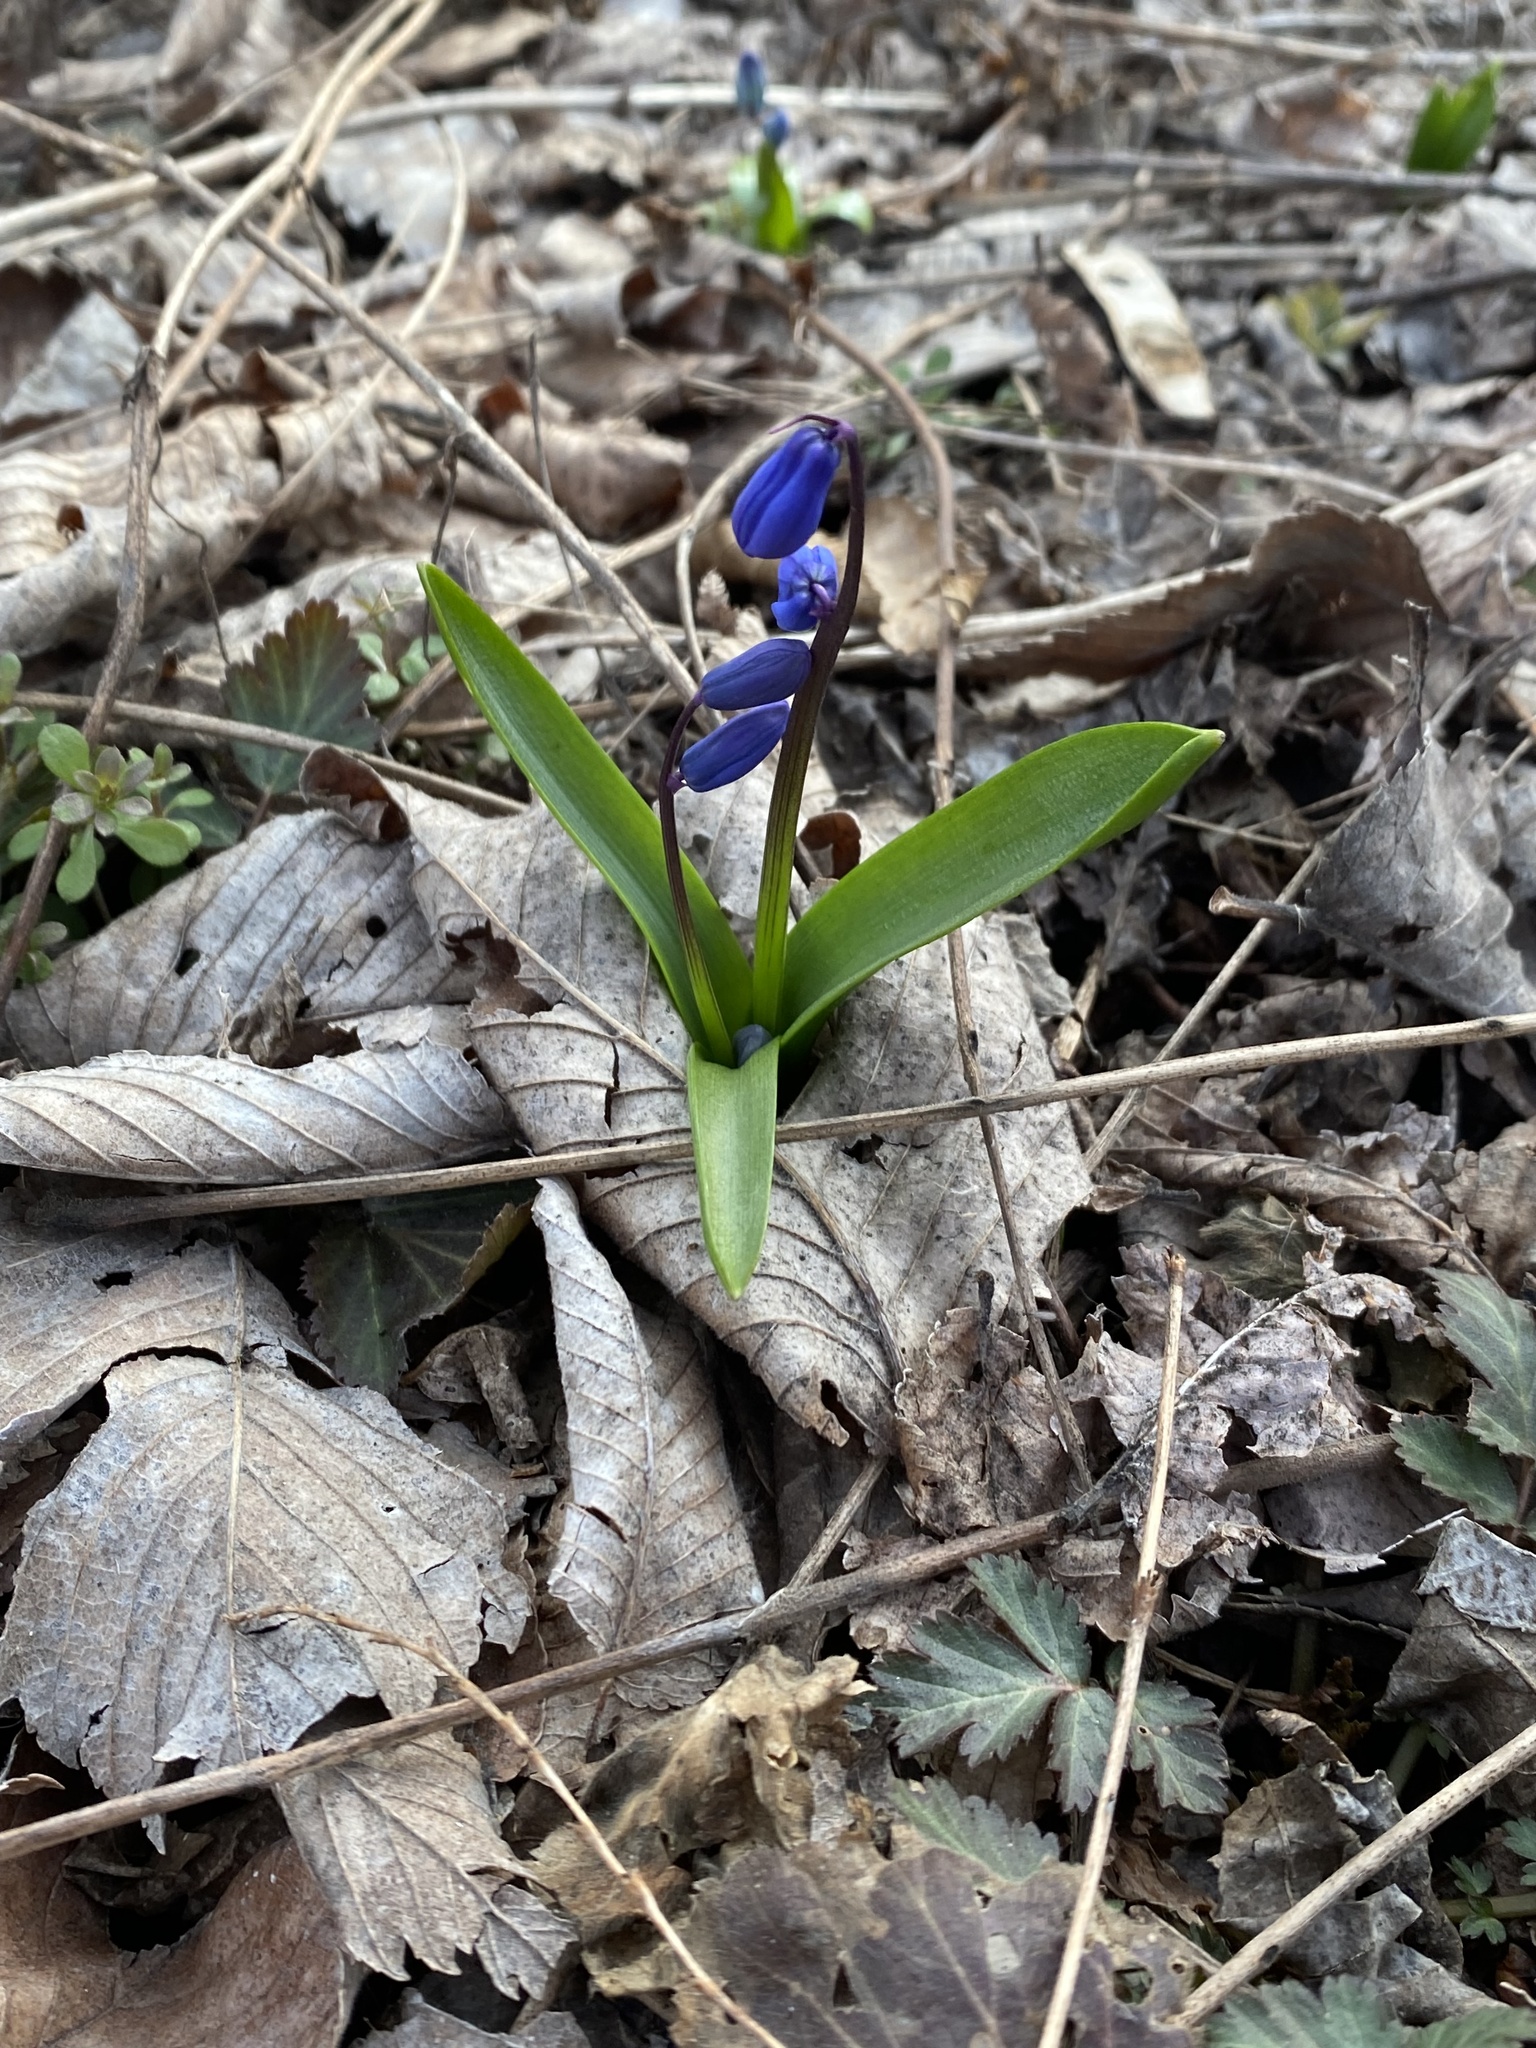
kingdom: Plantae
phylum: Tracheophyta
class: Liliopsida
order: Asparagales
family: Asparagaceae
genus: Scilla
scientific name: Scilla siberica
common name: Siberian squill
